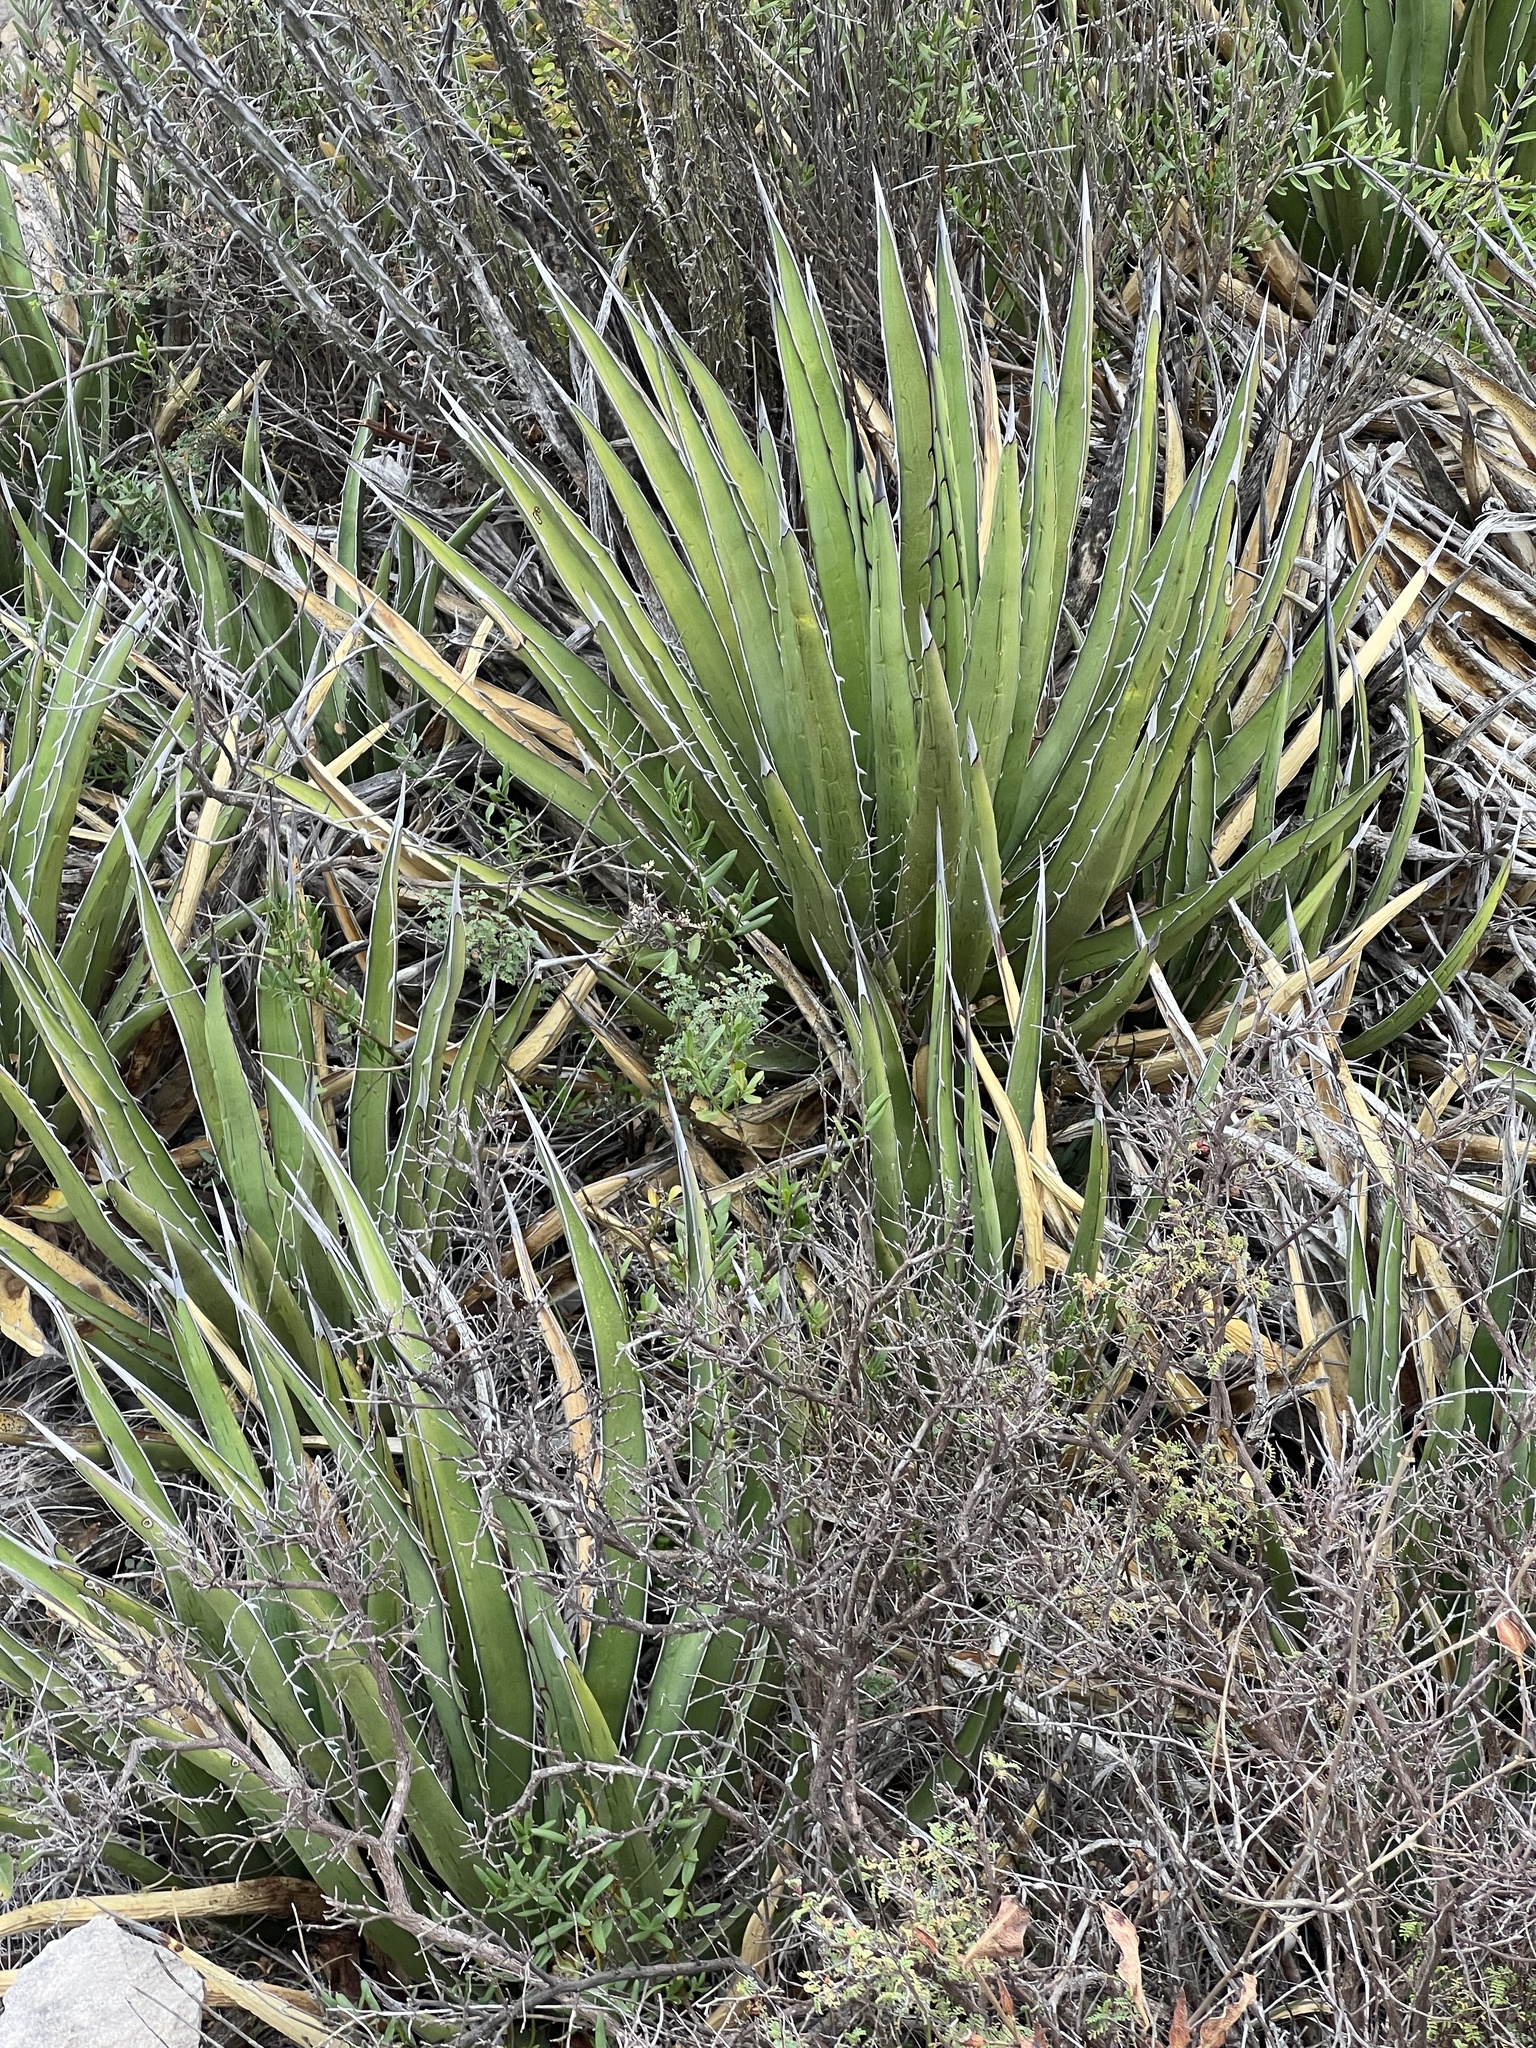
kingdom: Plantae
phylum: Tracheophyta
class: Liliopsida
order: Asparagales
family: Asparagaceae
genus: Agave
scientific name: Agave lechuguilla
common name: Lecheguilla agave
